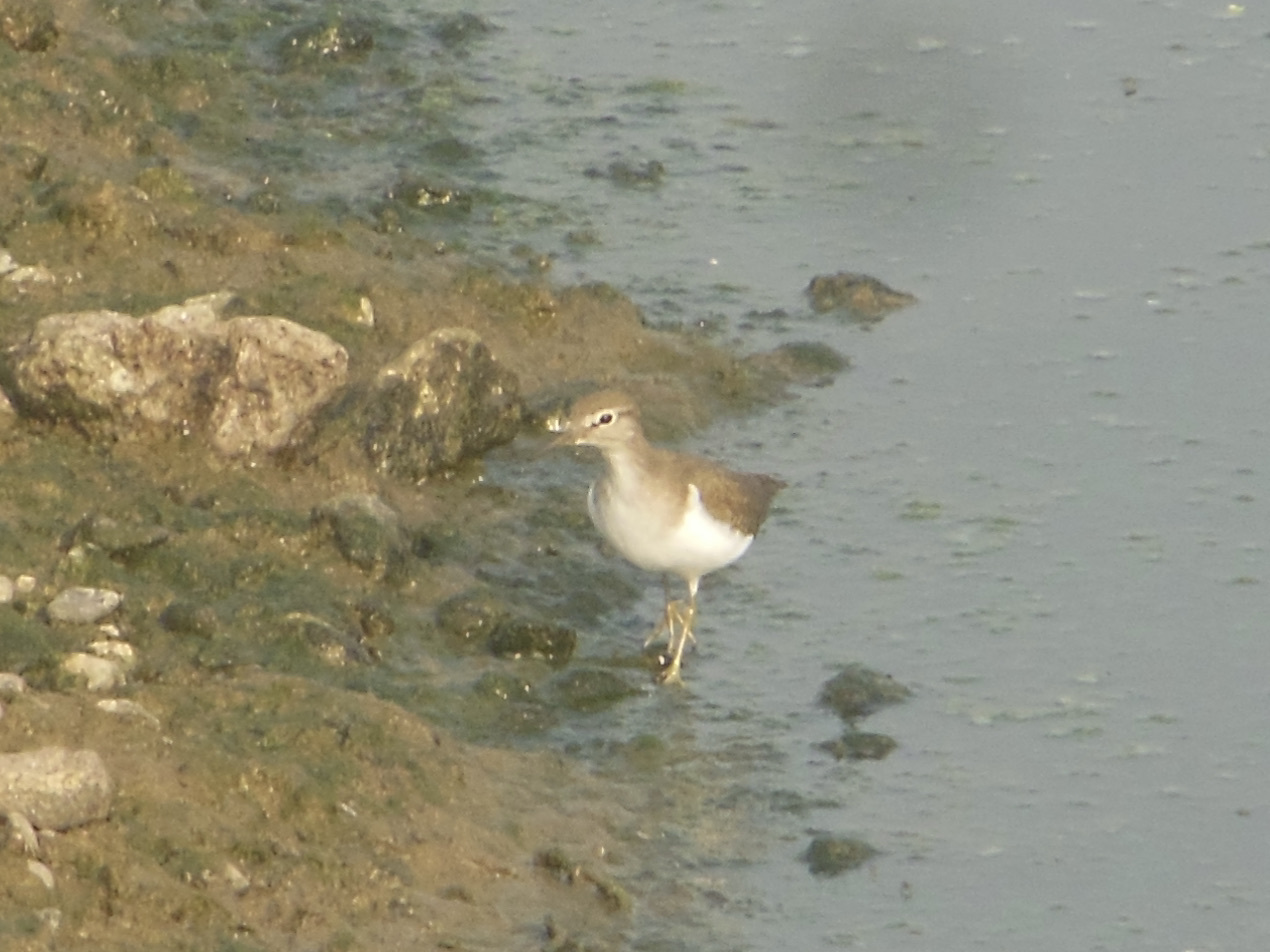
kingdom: Animalia
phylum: Chordata
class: Aves
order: Charadriiformes
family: Scolopacidae
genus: Actitis
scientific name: Actitis hypoleucos
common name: Common sandpiper
